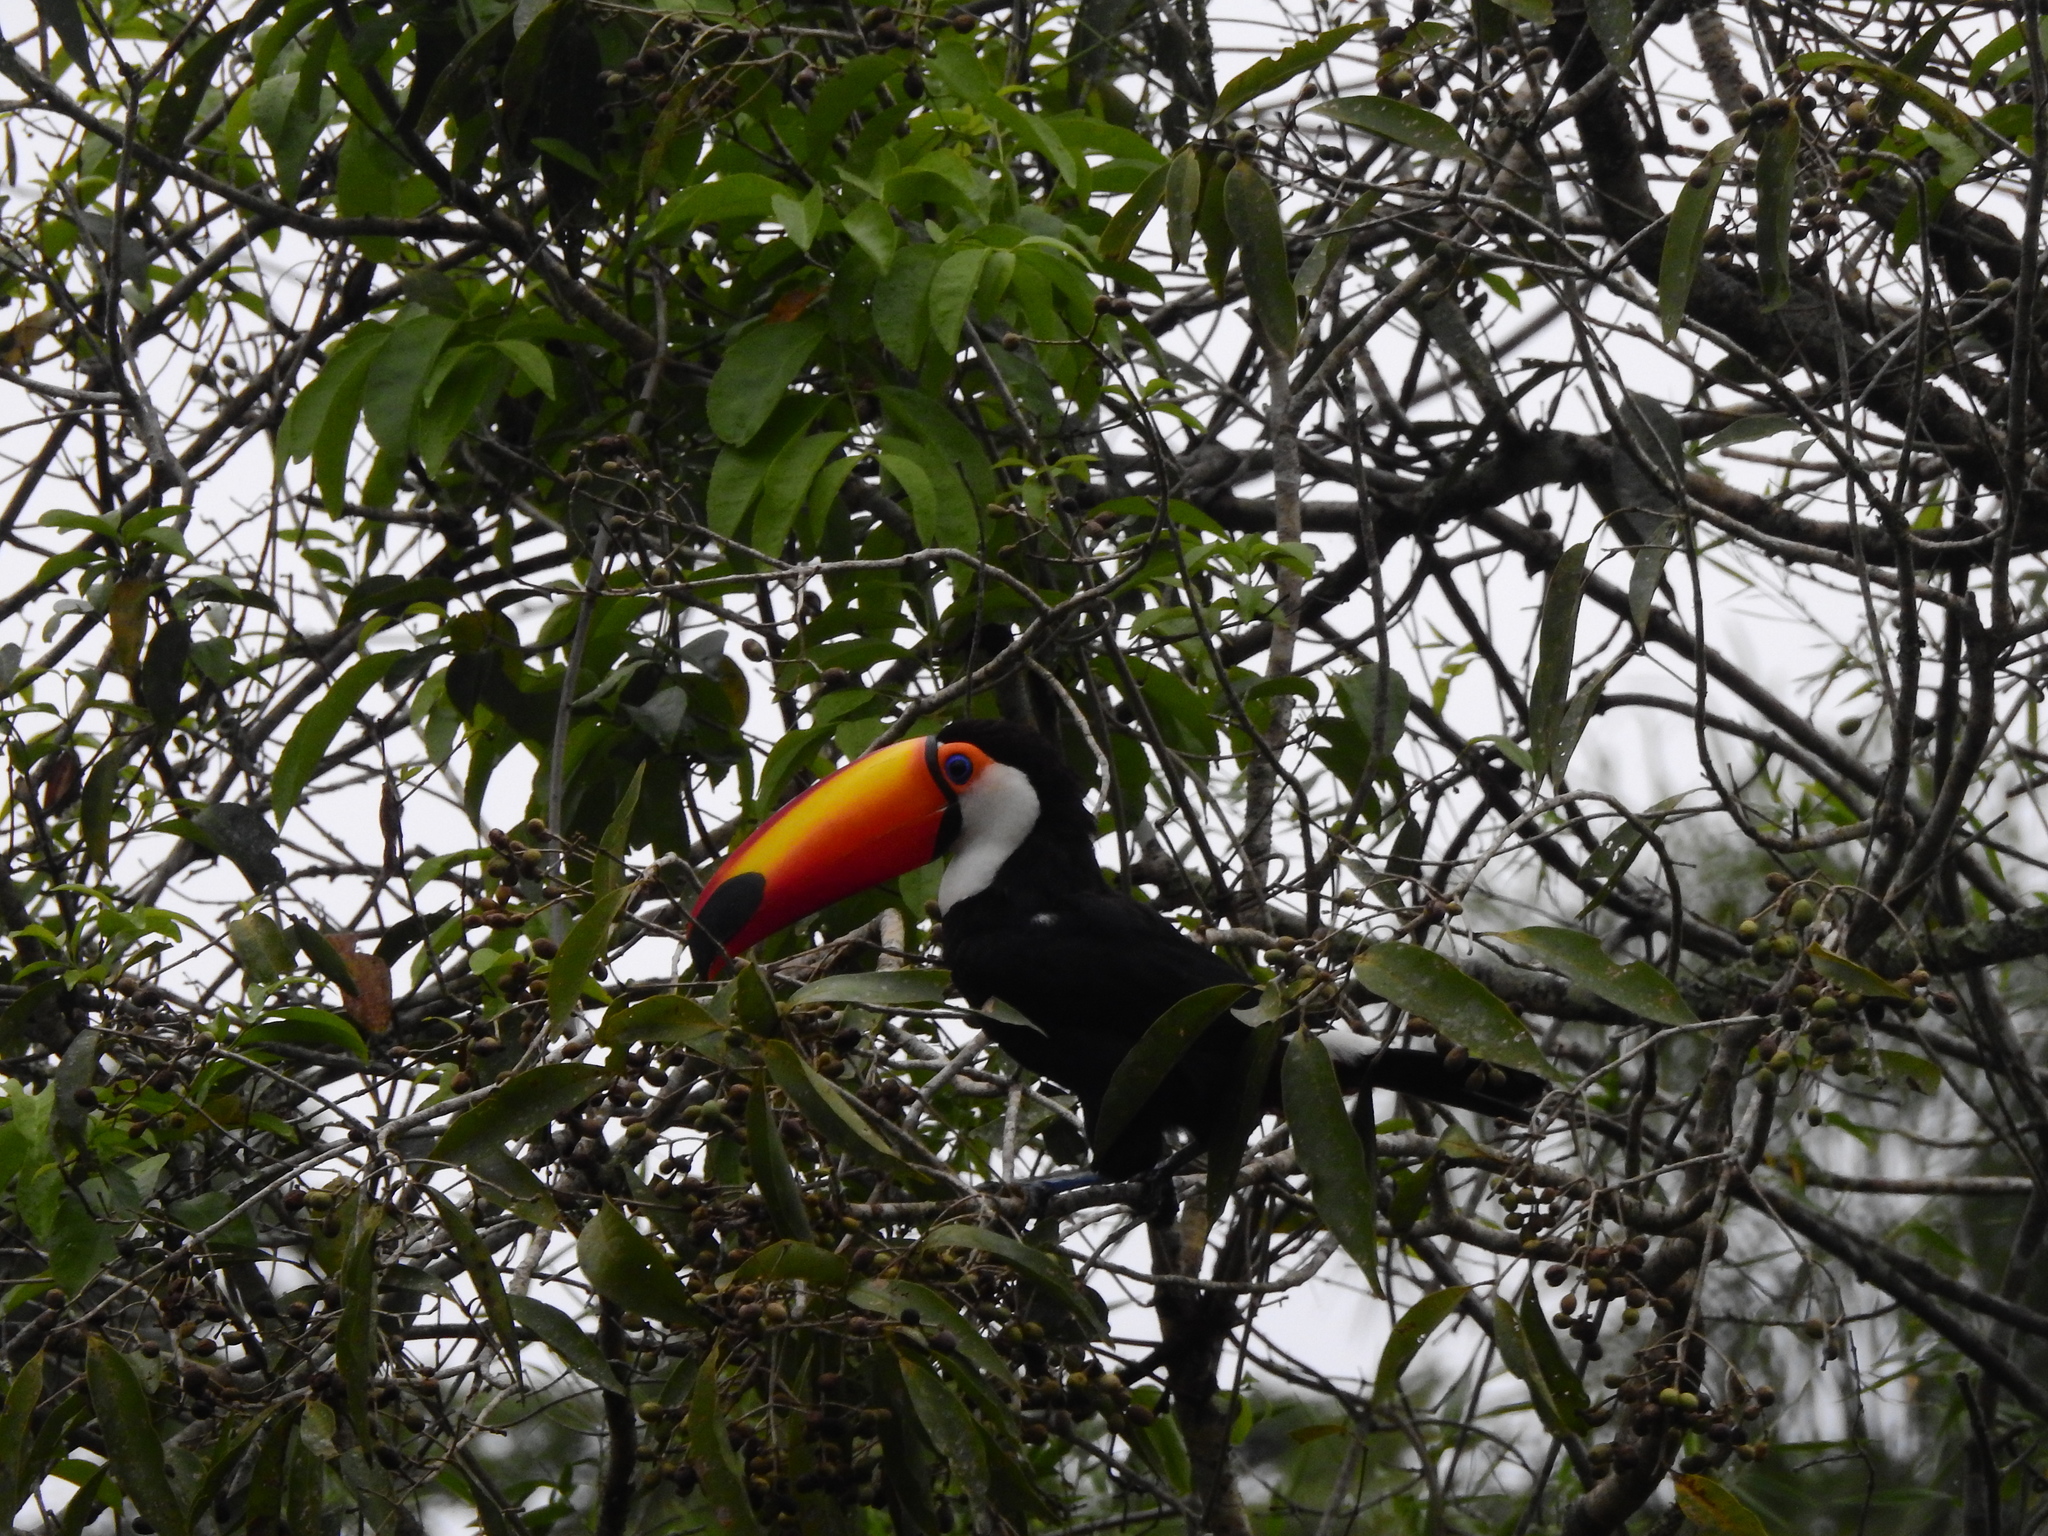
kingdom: Animalia
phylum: Chordata
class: Aves
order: Piciformes
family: Ramphastidae
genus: Ramphastos
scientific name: Ramphastos toco
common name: Toco toucan
